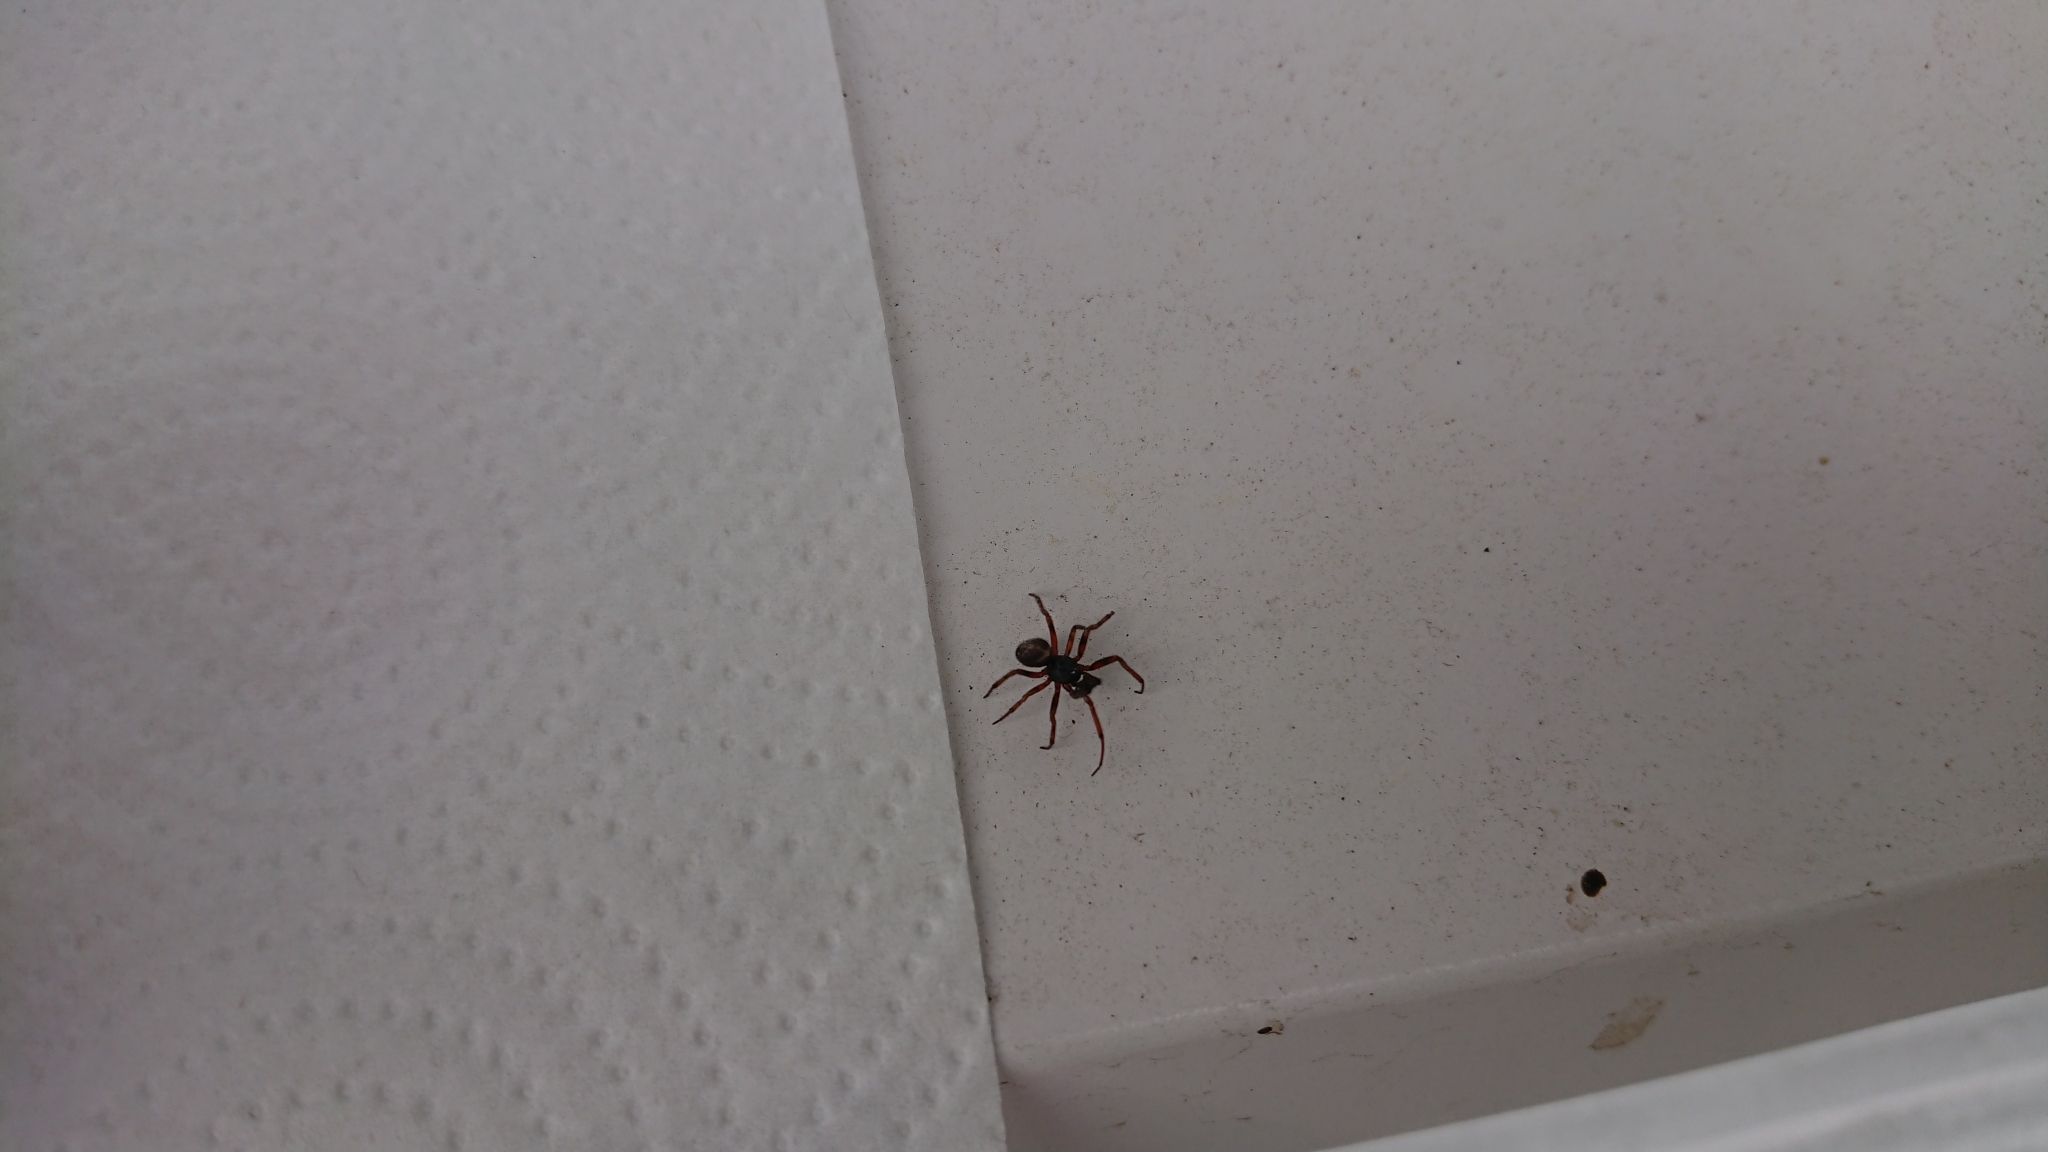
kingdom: Animalia
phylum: Arthropoda
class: Arachnida
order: Araneae
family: Theridiidae
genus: Steatoda
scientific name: Steatoda bipunctata
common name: False widow
